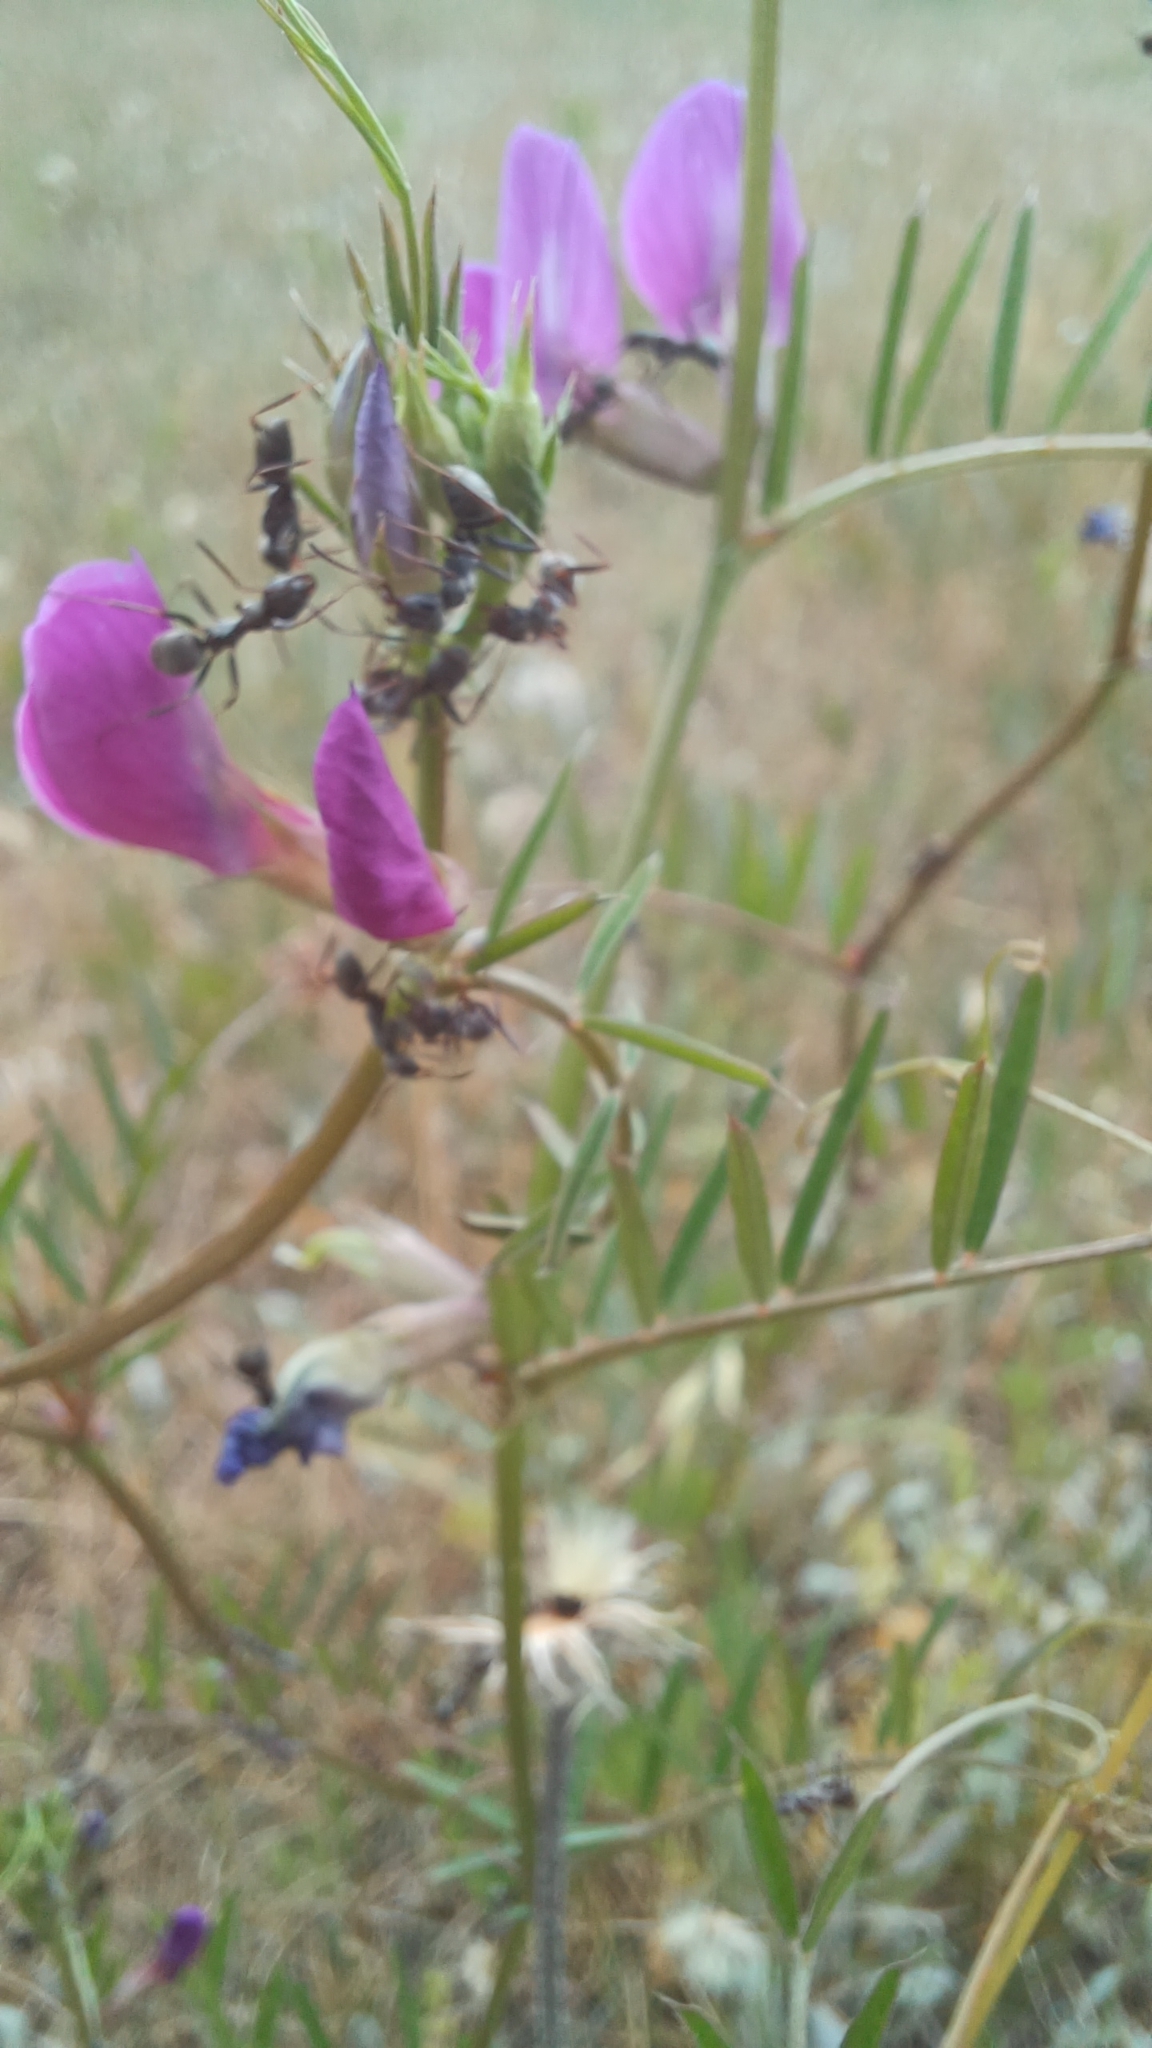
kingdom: Plantae
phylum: Tracheophyta
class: Magnoliopsida
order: Fabales
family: Fabaceae
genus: Vicia
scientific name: Vicia sativa
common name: Garden vetch
